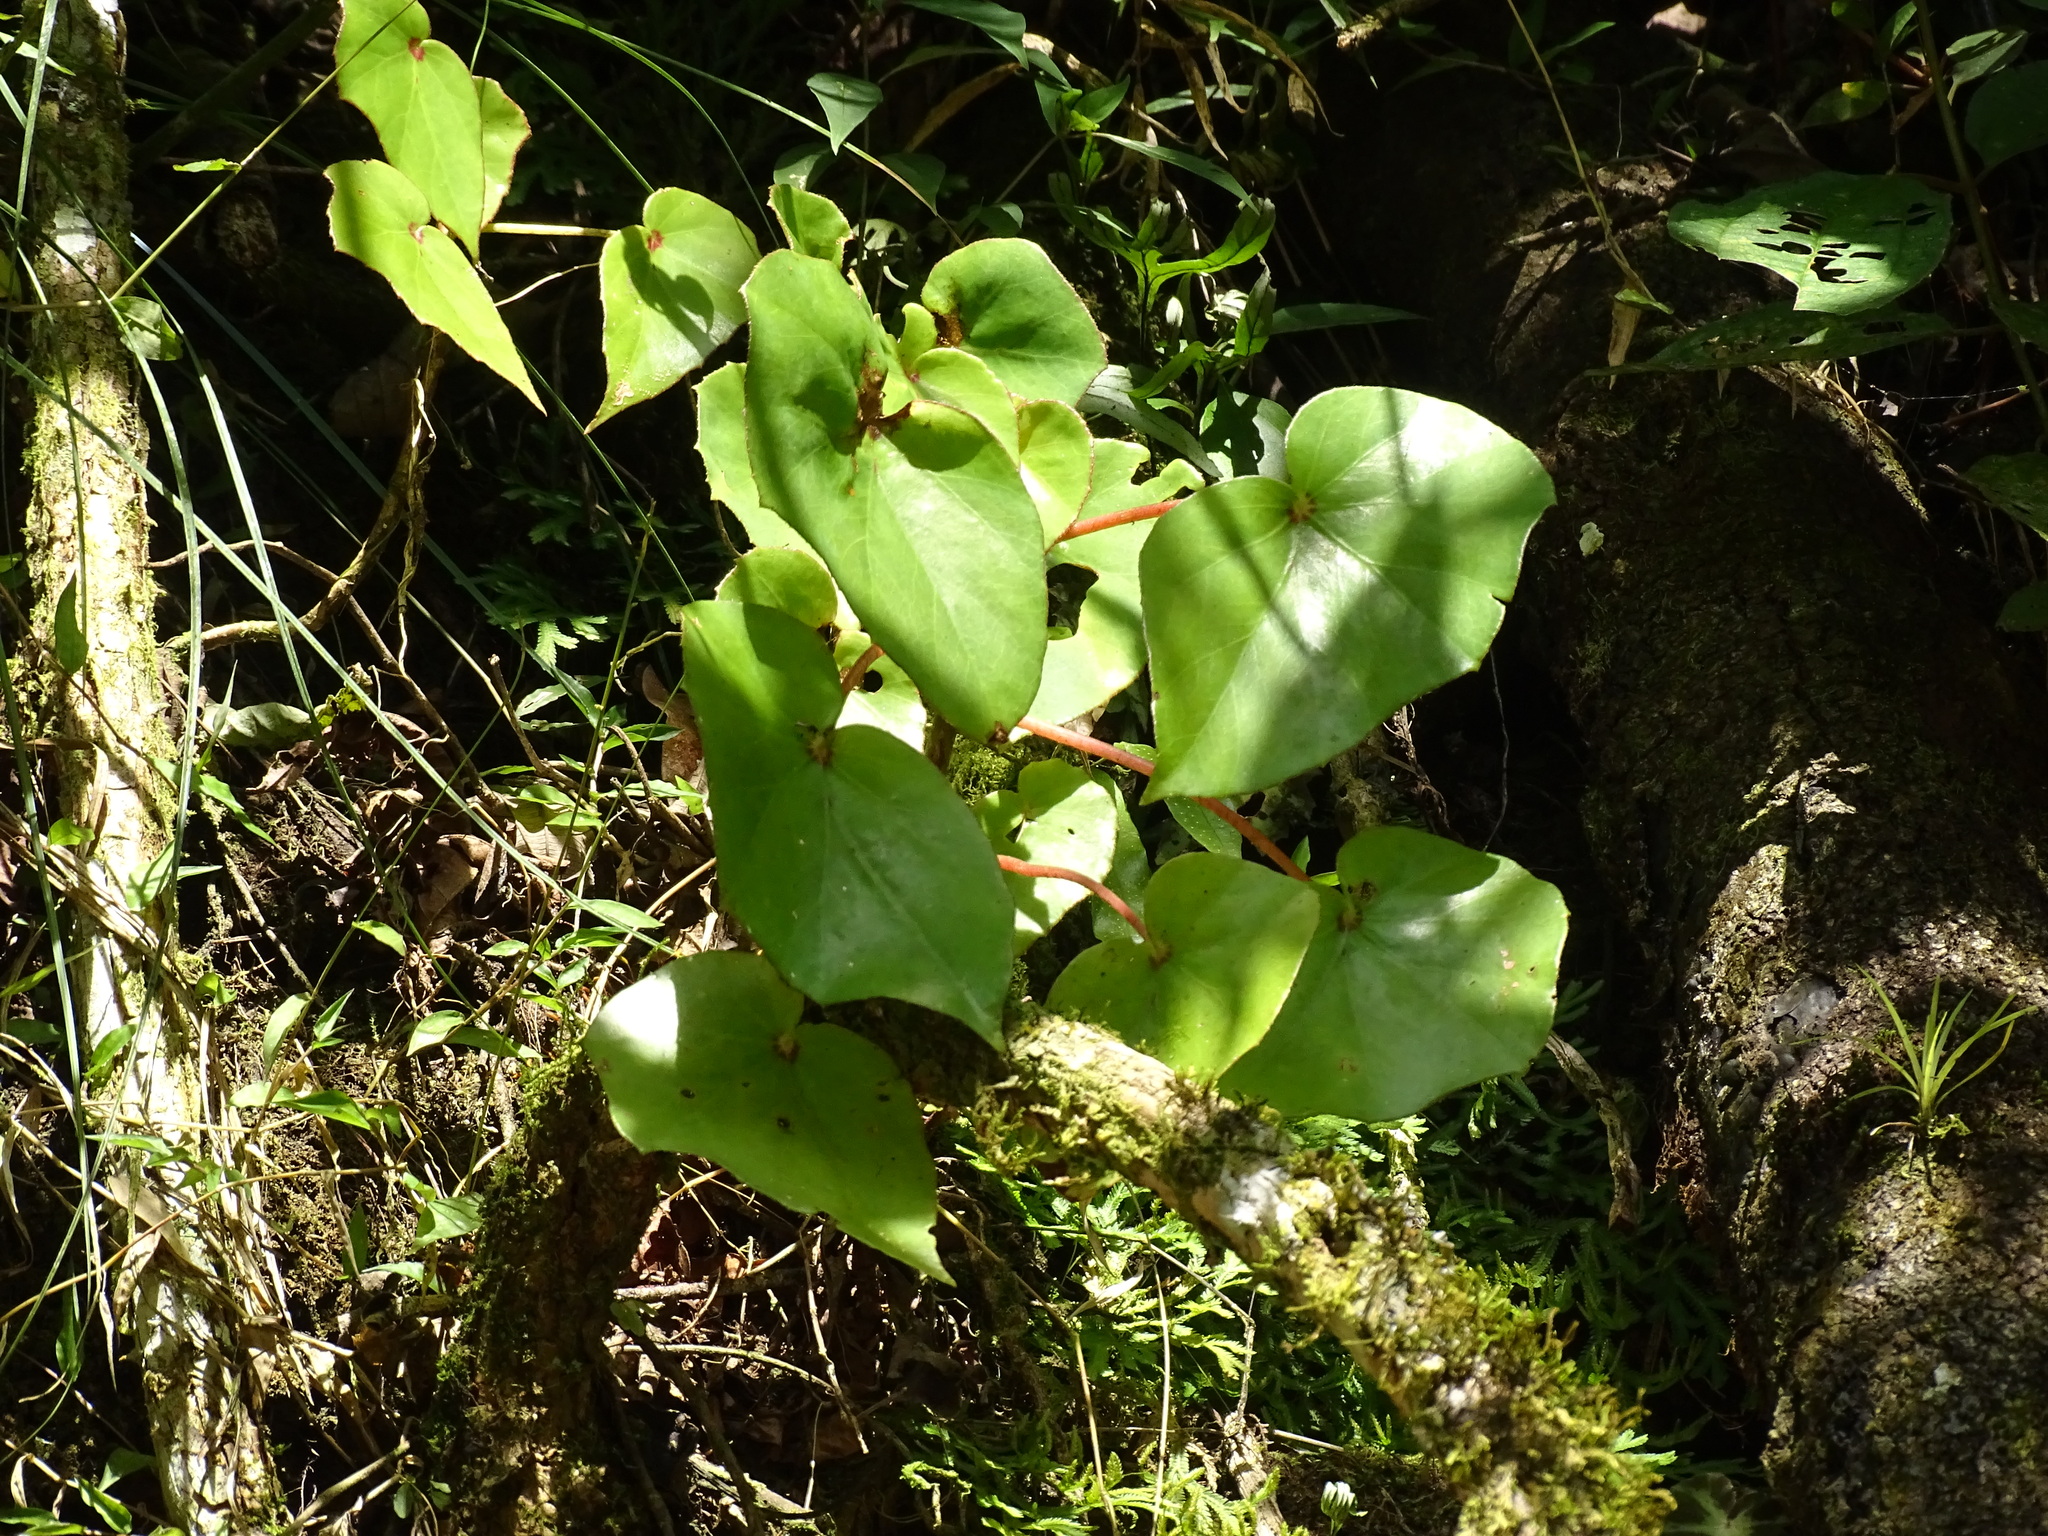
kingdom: Plantae
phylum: Tracheophyta
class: Magnoliopsida
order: Cucurbitales
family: Begoniaceae
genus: Begonia
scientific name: Begonia sartorii
